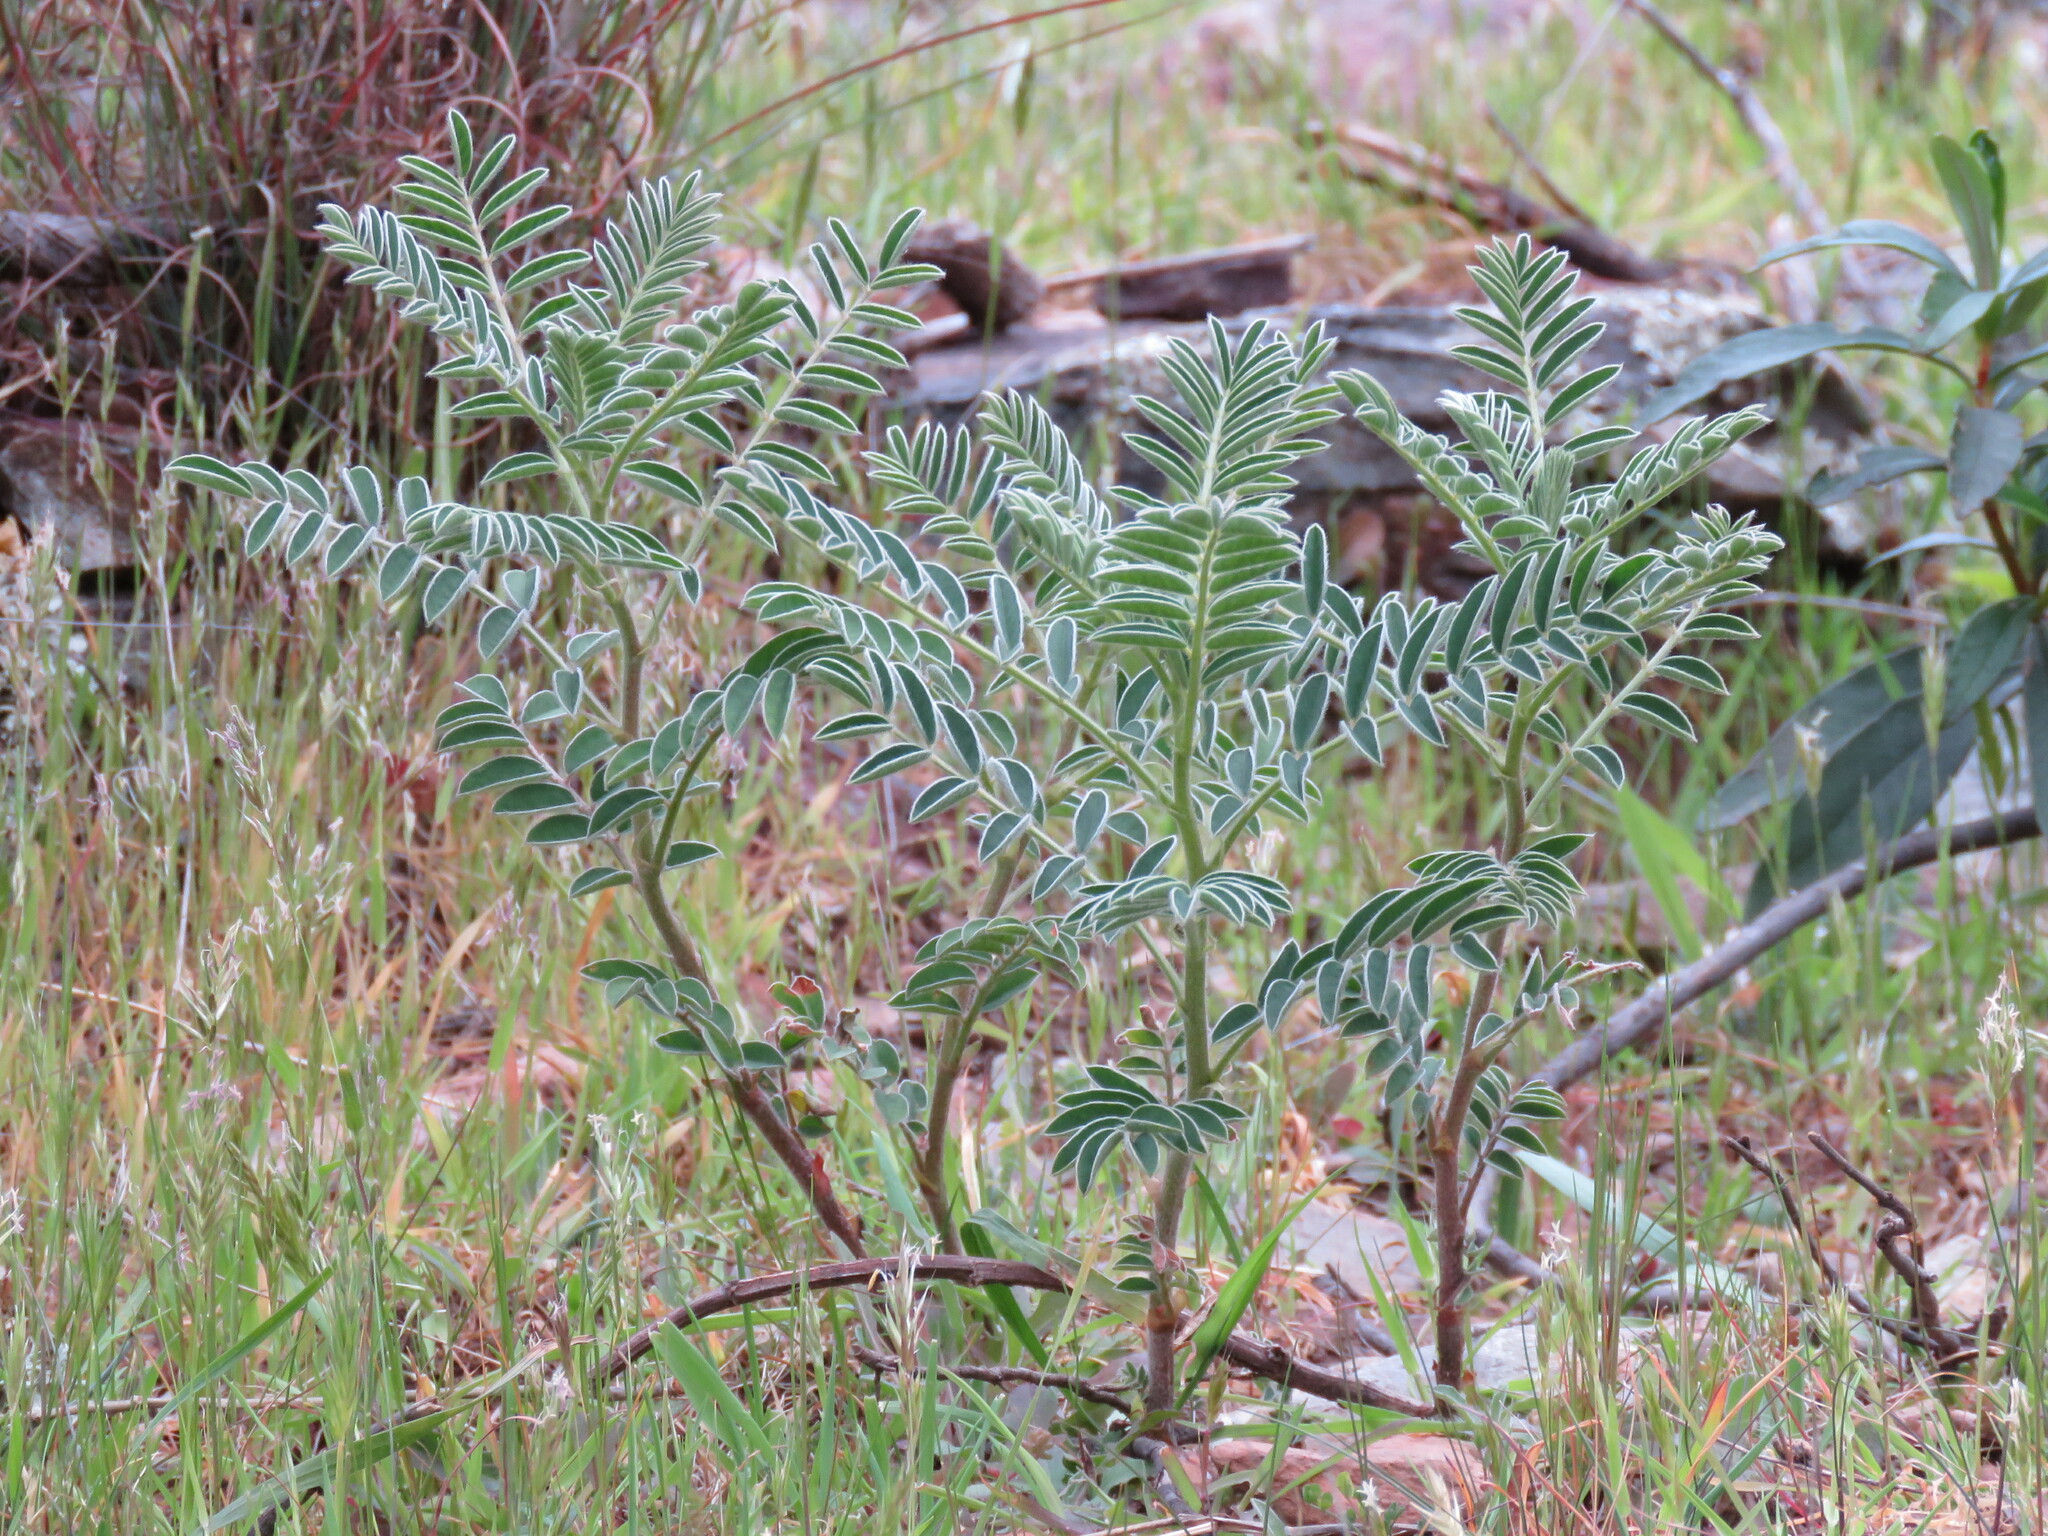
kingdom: Plantae
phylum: Tracheophyta
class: Magnoliopsida
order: Fabales
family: Fabaceae
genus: Erophaca
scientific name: Erophaca baetica
